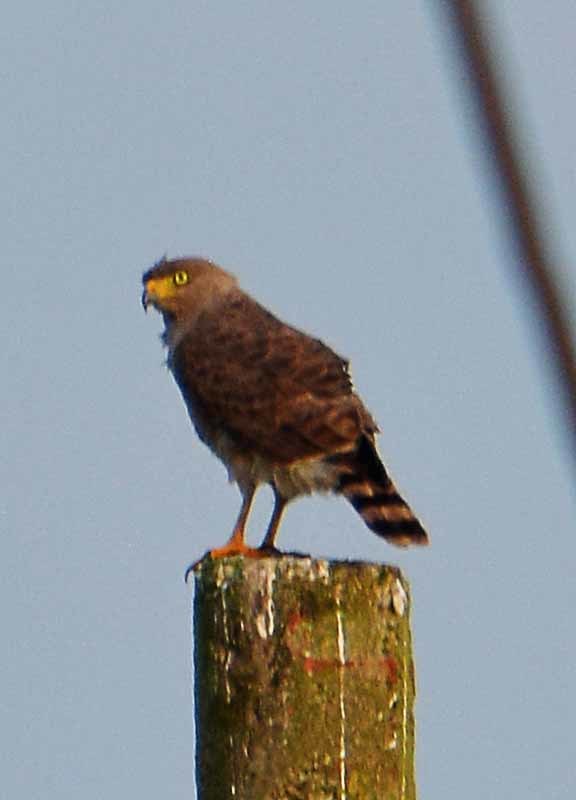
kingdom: Animalia
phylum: Chordata
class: Aves
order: Accipitriformes
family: Accipitridae
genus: Rupornis
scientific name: Rupornis magnirostris
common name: Roadside hawk
